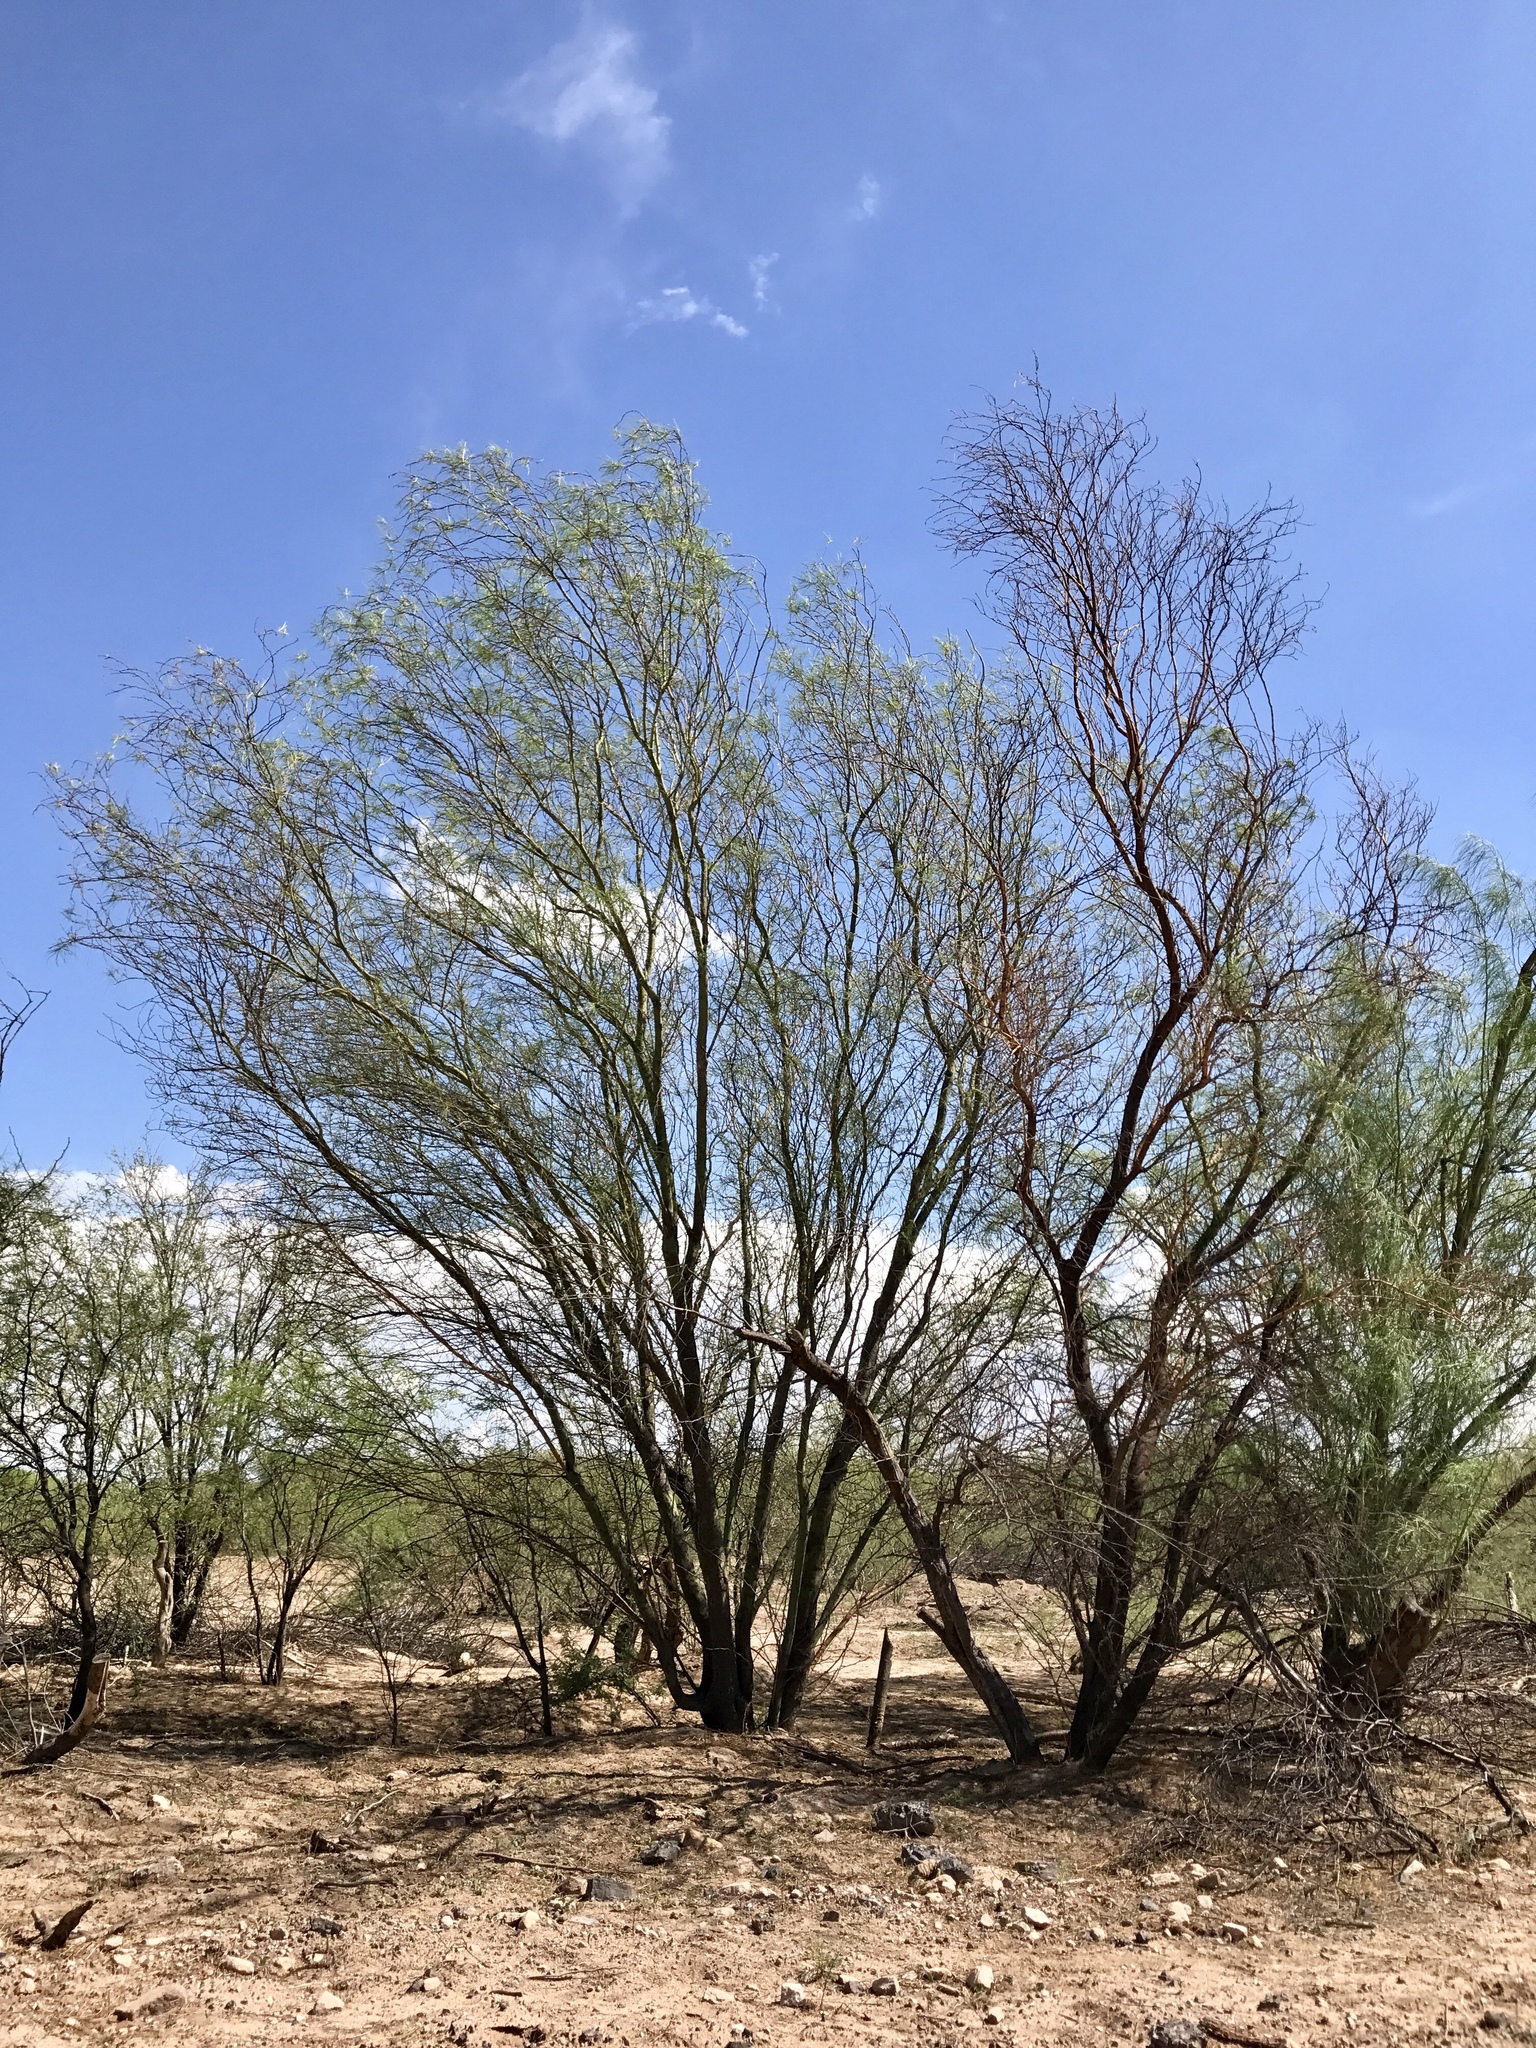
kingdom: Plantae
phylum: Tracheophyta
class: Magnoliopsida
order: Fabales
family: Fabaceae
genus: Parkinsonia
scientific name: Parkinsonia aculeata
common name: Jerusalem thorn
